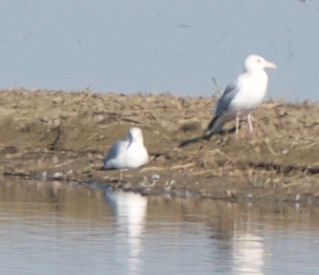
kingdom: Animalia
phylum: Chordata
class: Aves
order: Charadriiformes
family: Laridae
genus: Larus
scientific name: Larus delawarensis
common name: Ring-billed gull
